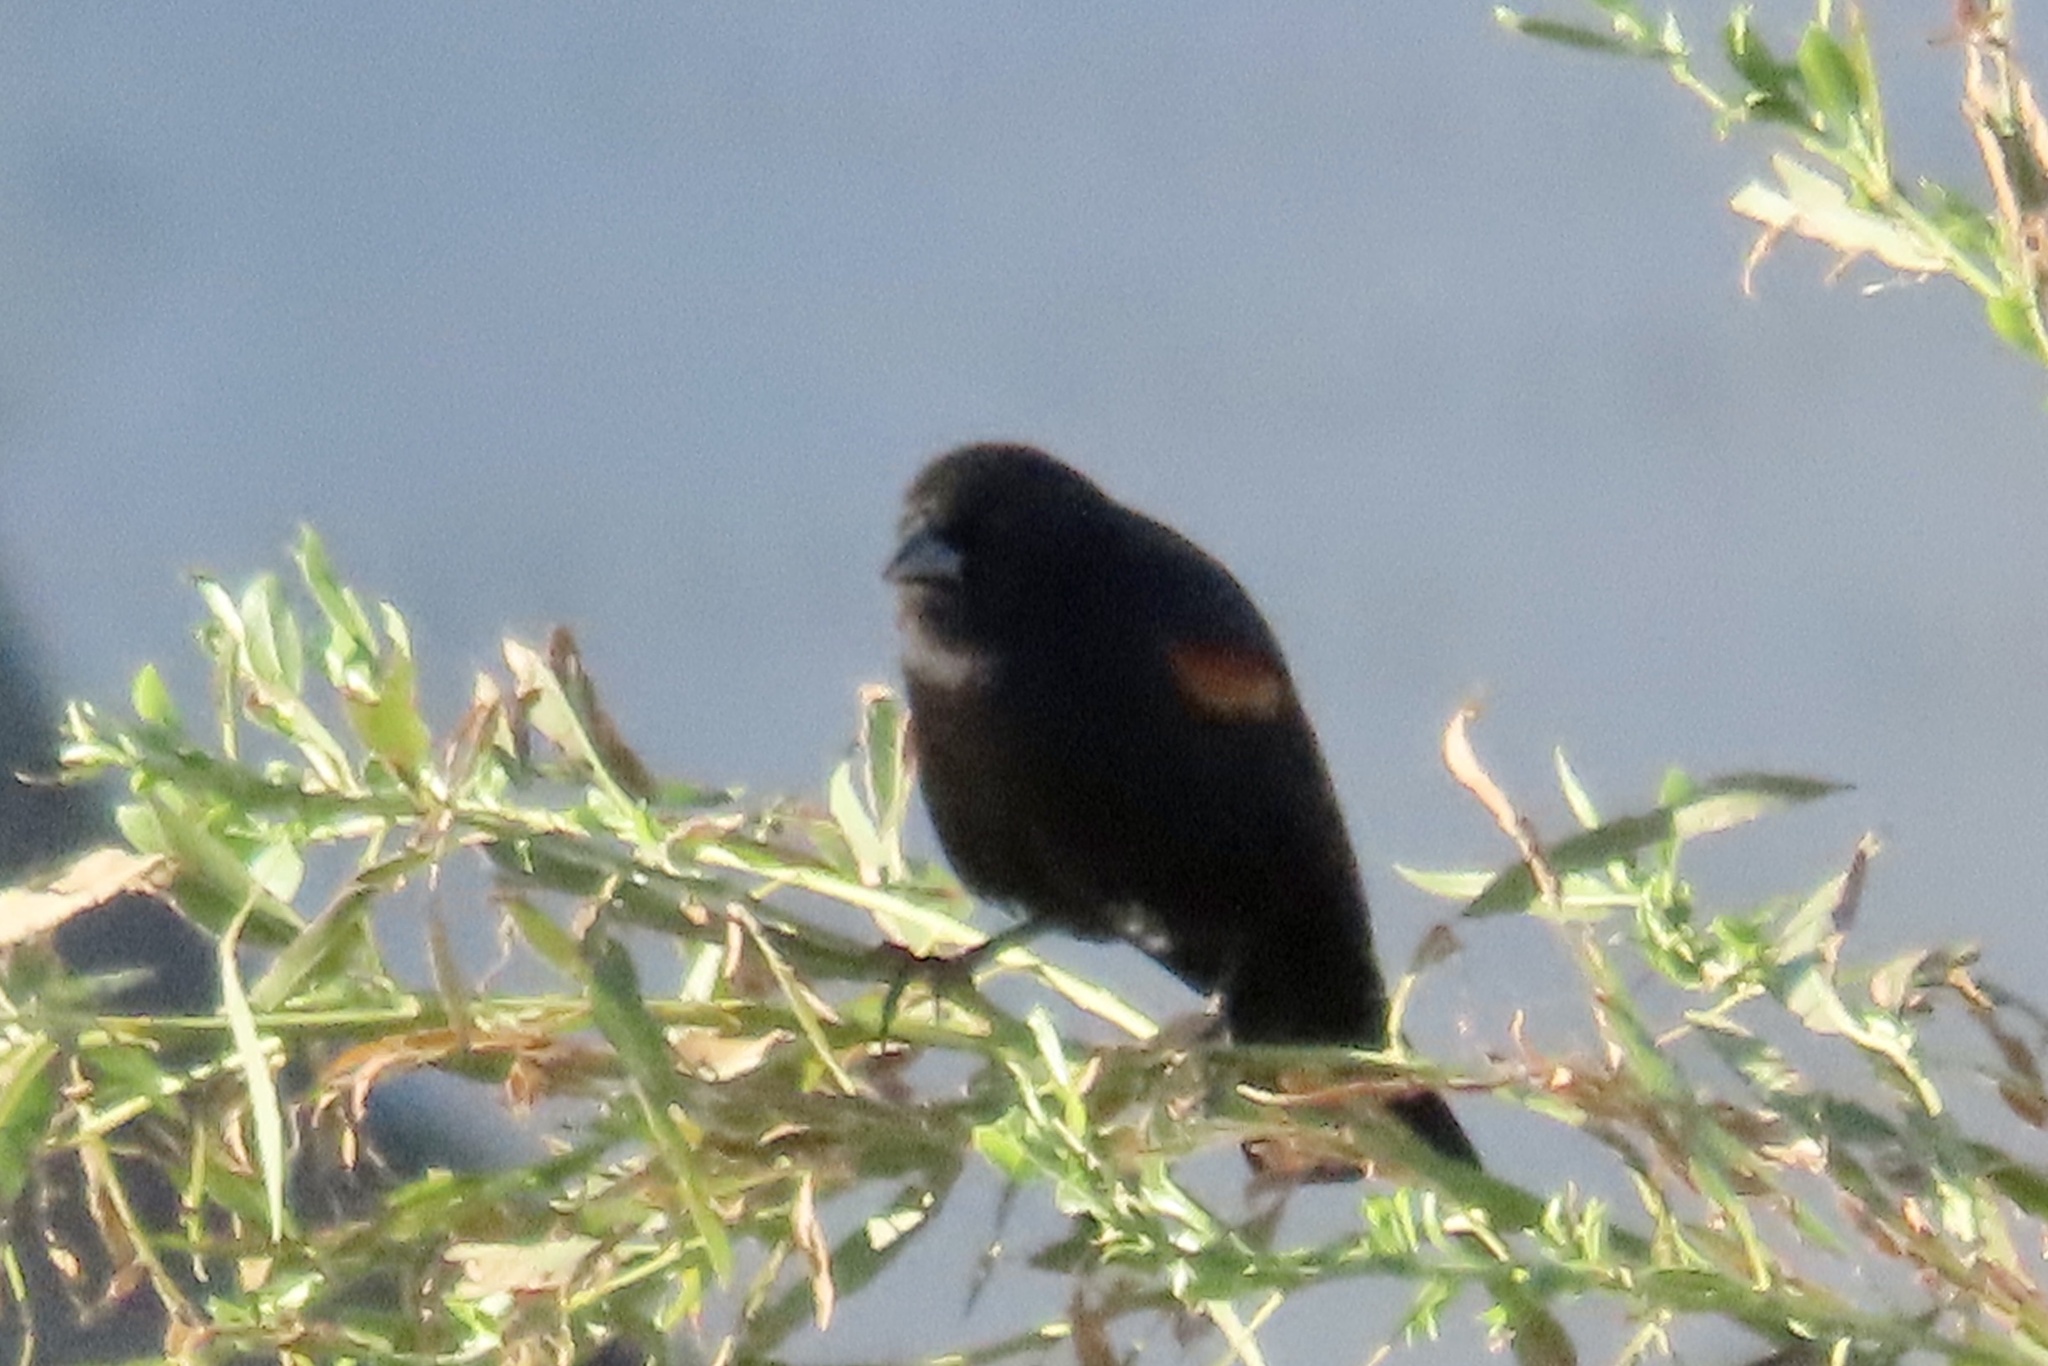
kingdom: Animalia
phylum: Chordata
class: Aves
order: Passeriformes
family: Icteridae
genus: Agelaius
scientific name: Agelaius phoeniceus
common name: Red-winged blackbird
